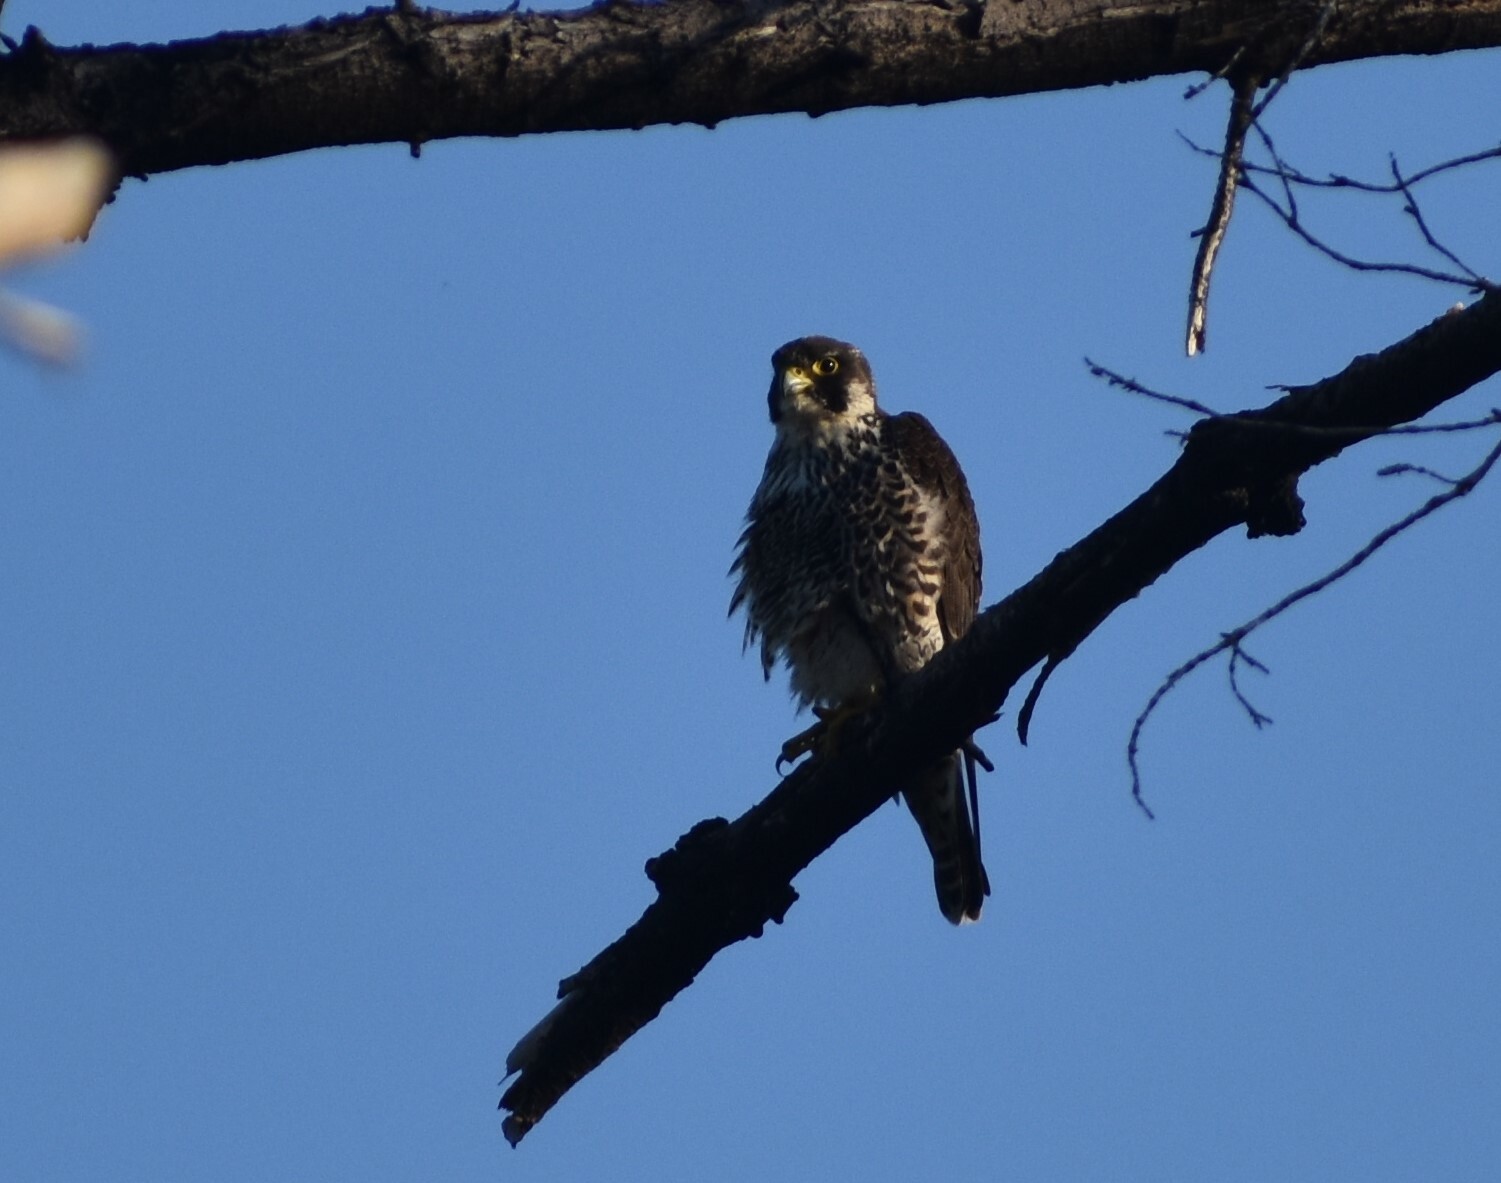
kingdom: Animalia
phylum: Chordata
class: Aves
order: Falconiformes
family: Falconidae
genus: Falco
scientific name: Falco peregrinus
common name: Peregrine falcon
